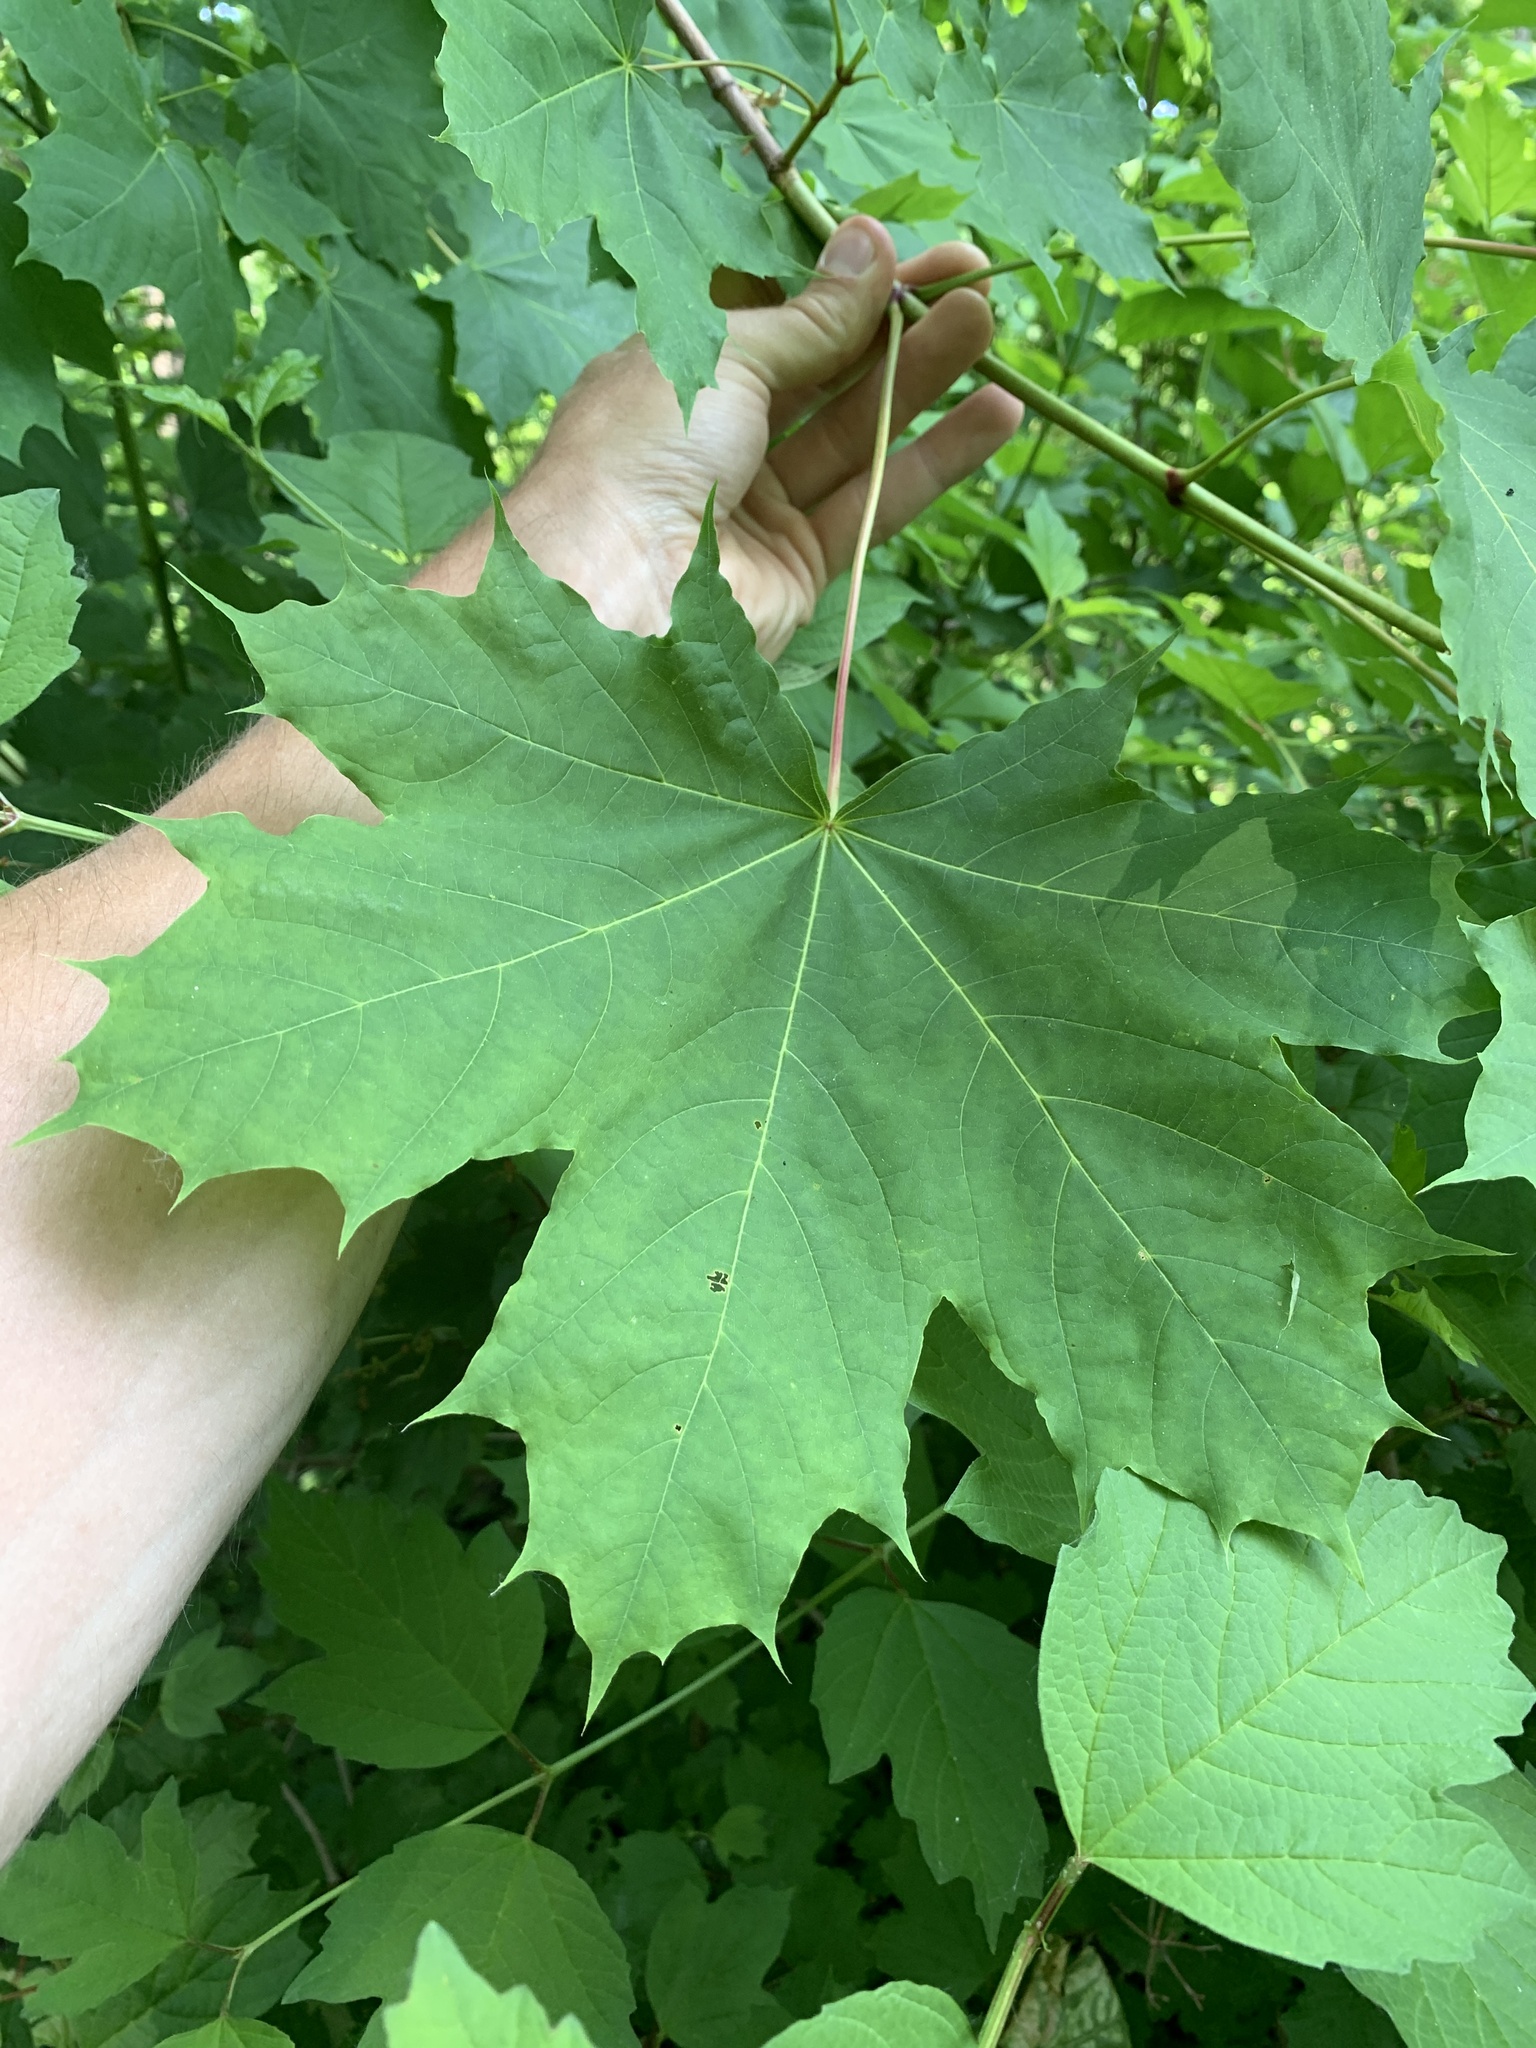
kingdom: Plantae
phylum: Tracheophyta
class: Magnoliopsida
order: Sapindales
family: Sapindaceae
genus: Acer
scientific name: Acer platanoides
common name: Norway maple
